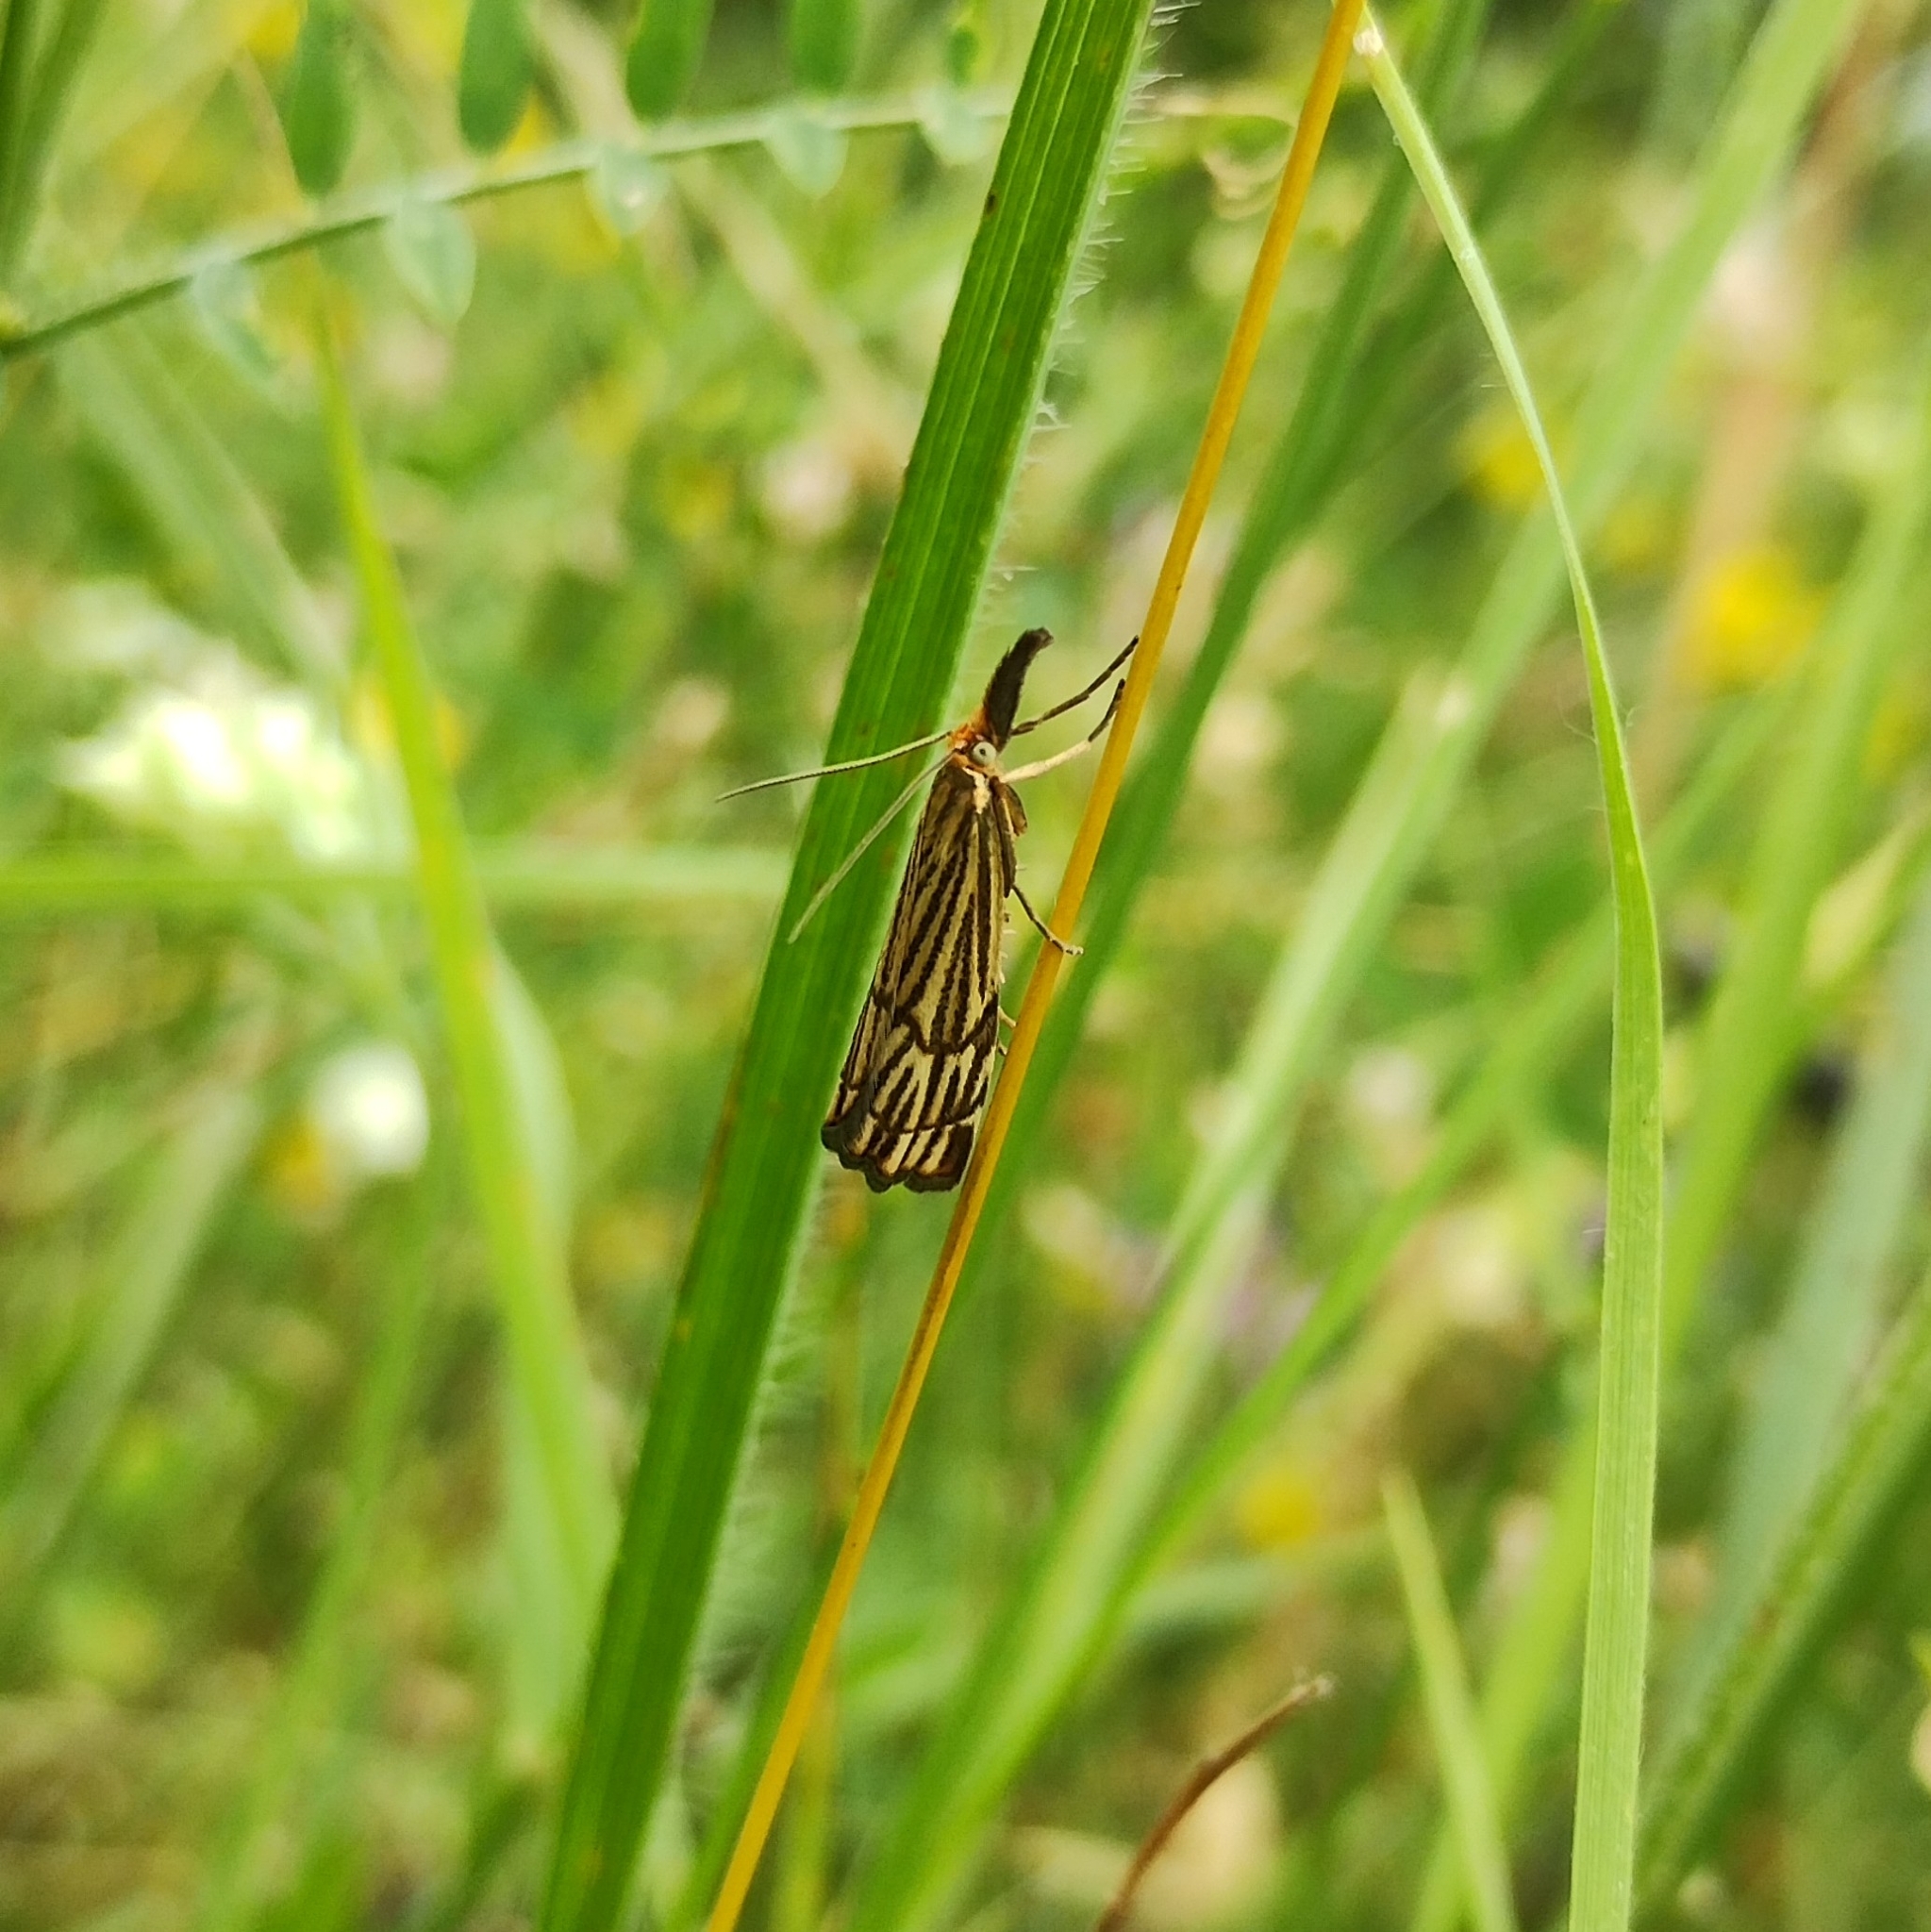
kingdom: Animalia
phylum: Arthropoda
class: Insecta
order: Lepidoptera
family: Crambidae
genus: Chrysocrambus
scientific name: Chrysocrambus Chrysocramboides craterellus
